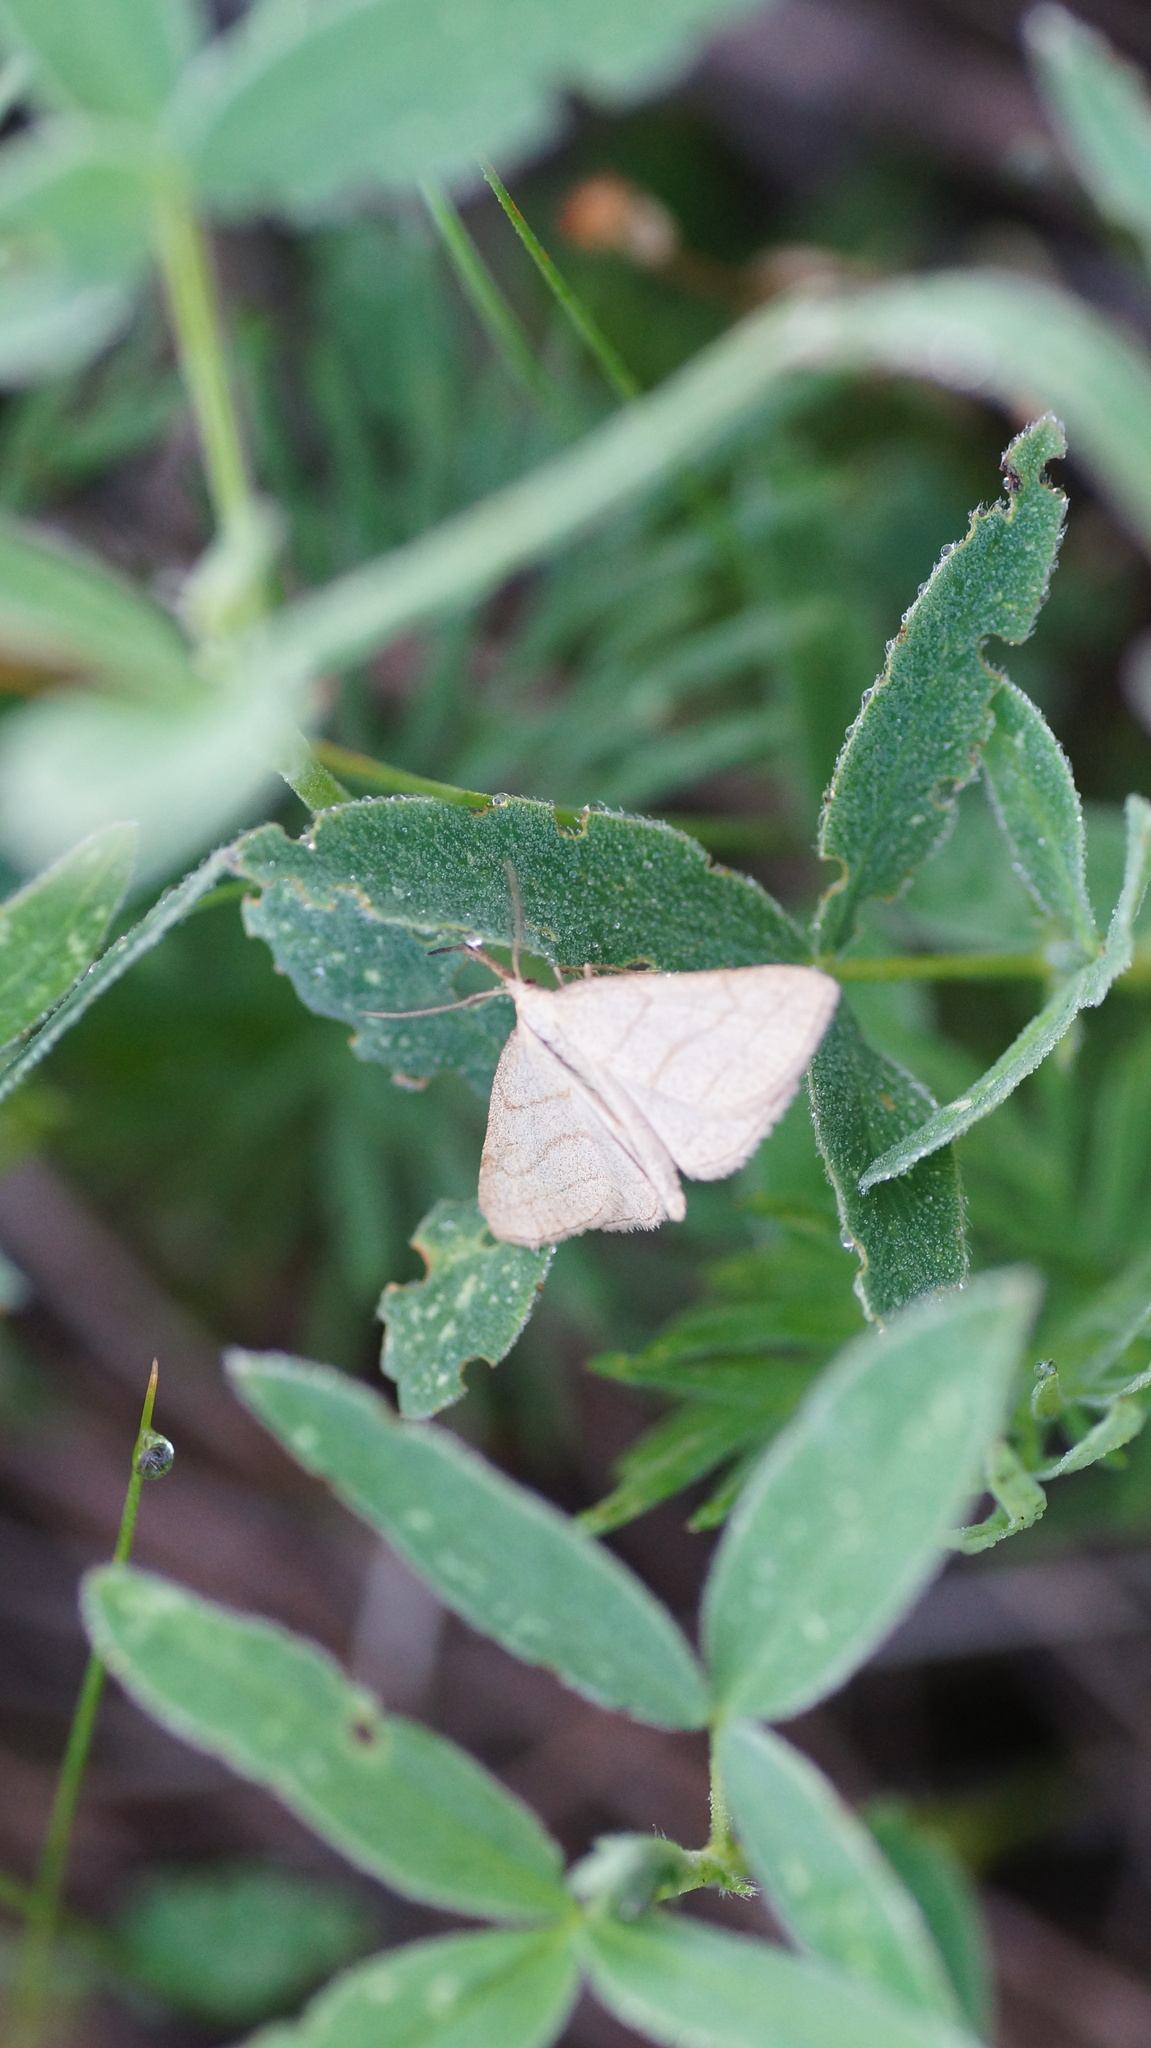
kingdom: Animalia
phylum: Arthropoda
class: Insecta
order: Lepidoptera
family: Erebidae
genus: Polypogon
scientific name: Polypogon tentacularia
